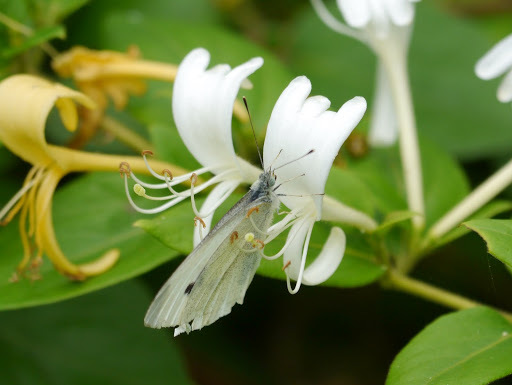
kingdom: Animalia
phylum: Arthropoda
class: Insecta
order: Lepidoptera
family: Pieridae
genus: Pieris
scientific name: Pieris rapae
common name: Small white
